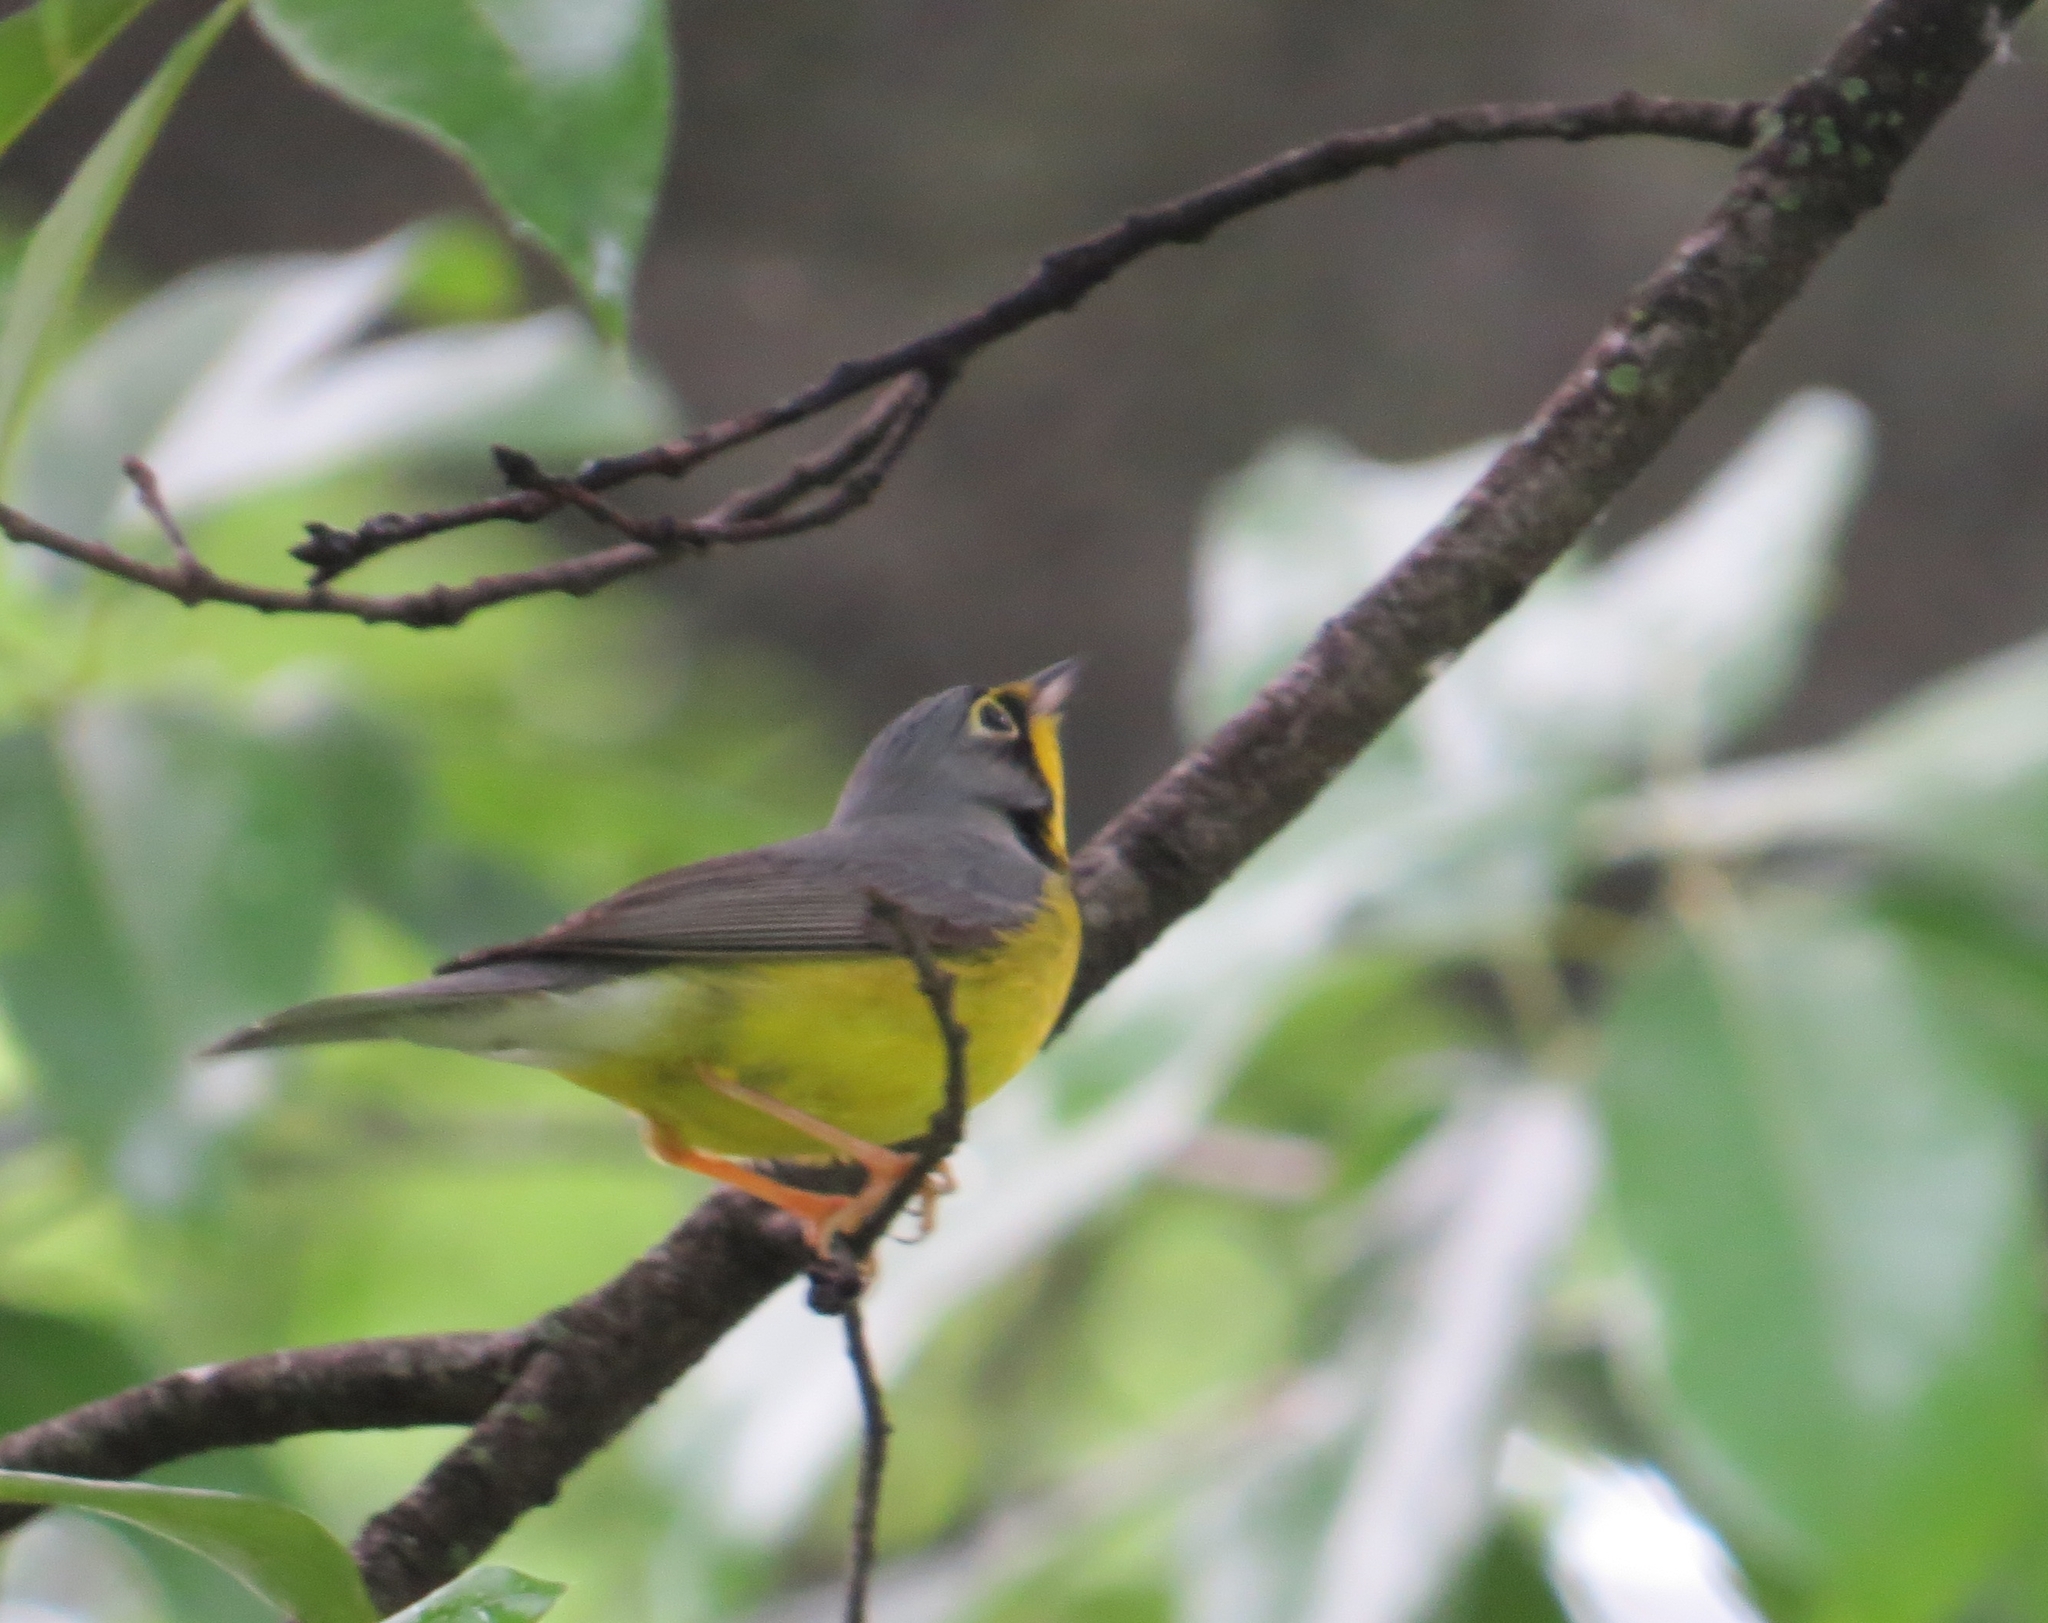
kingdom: Animalia
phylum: Chordata
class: Aves
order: Passeriformes
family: Parulidae
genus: Cardellina
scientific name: Cardellina canadensis
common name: Canada warbler
